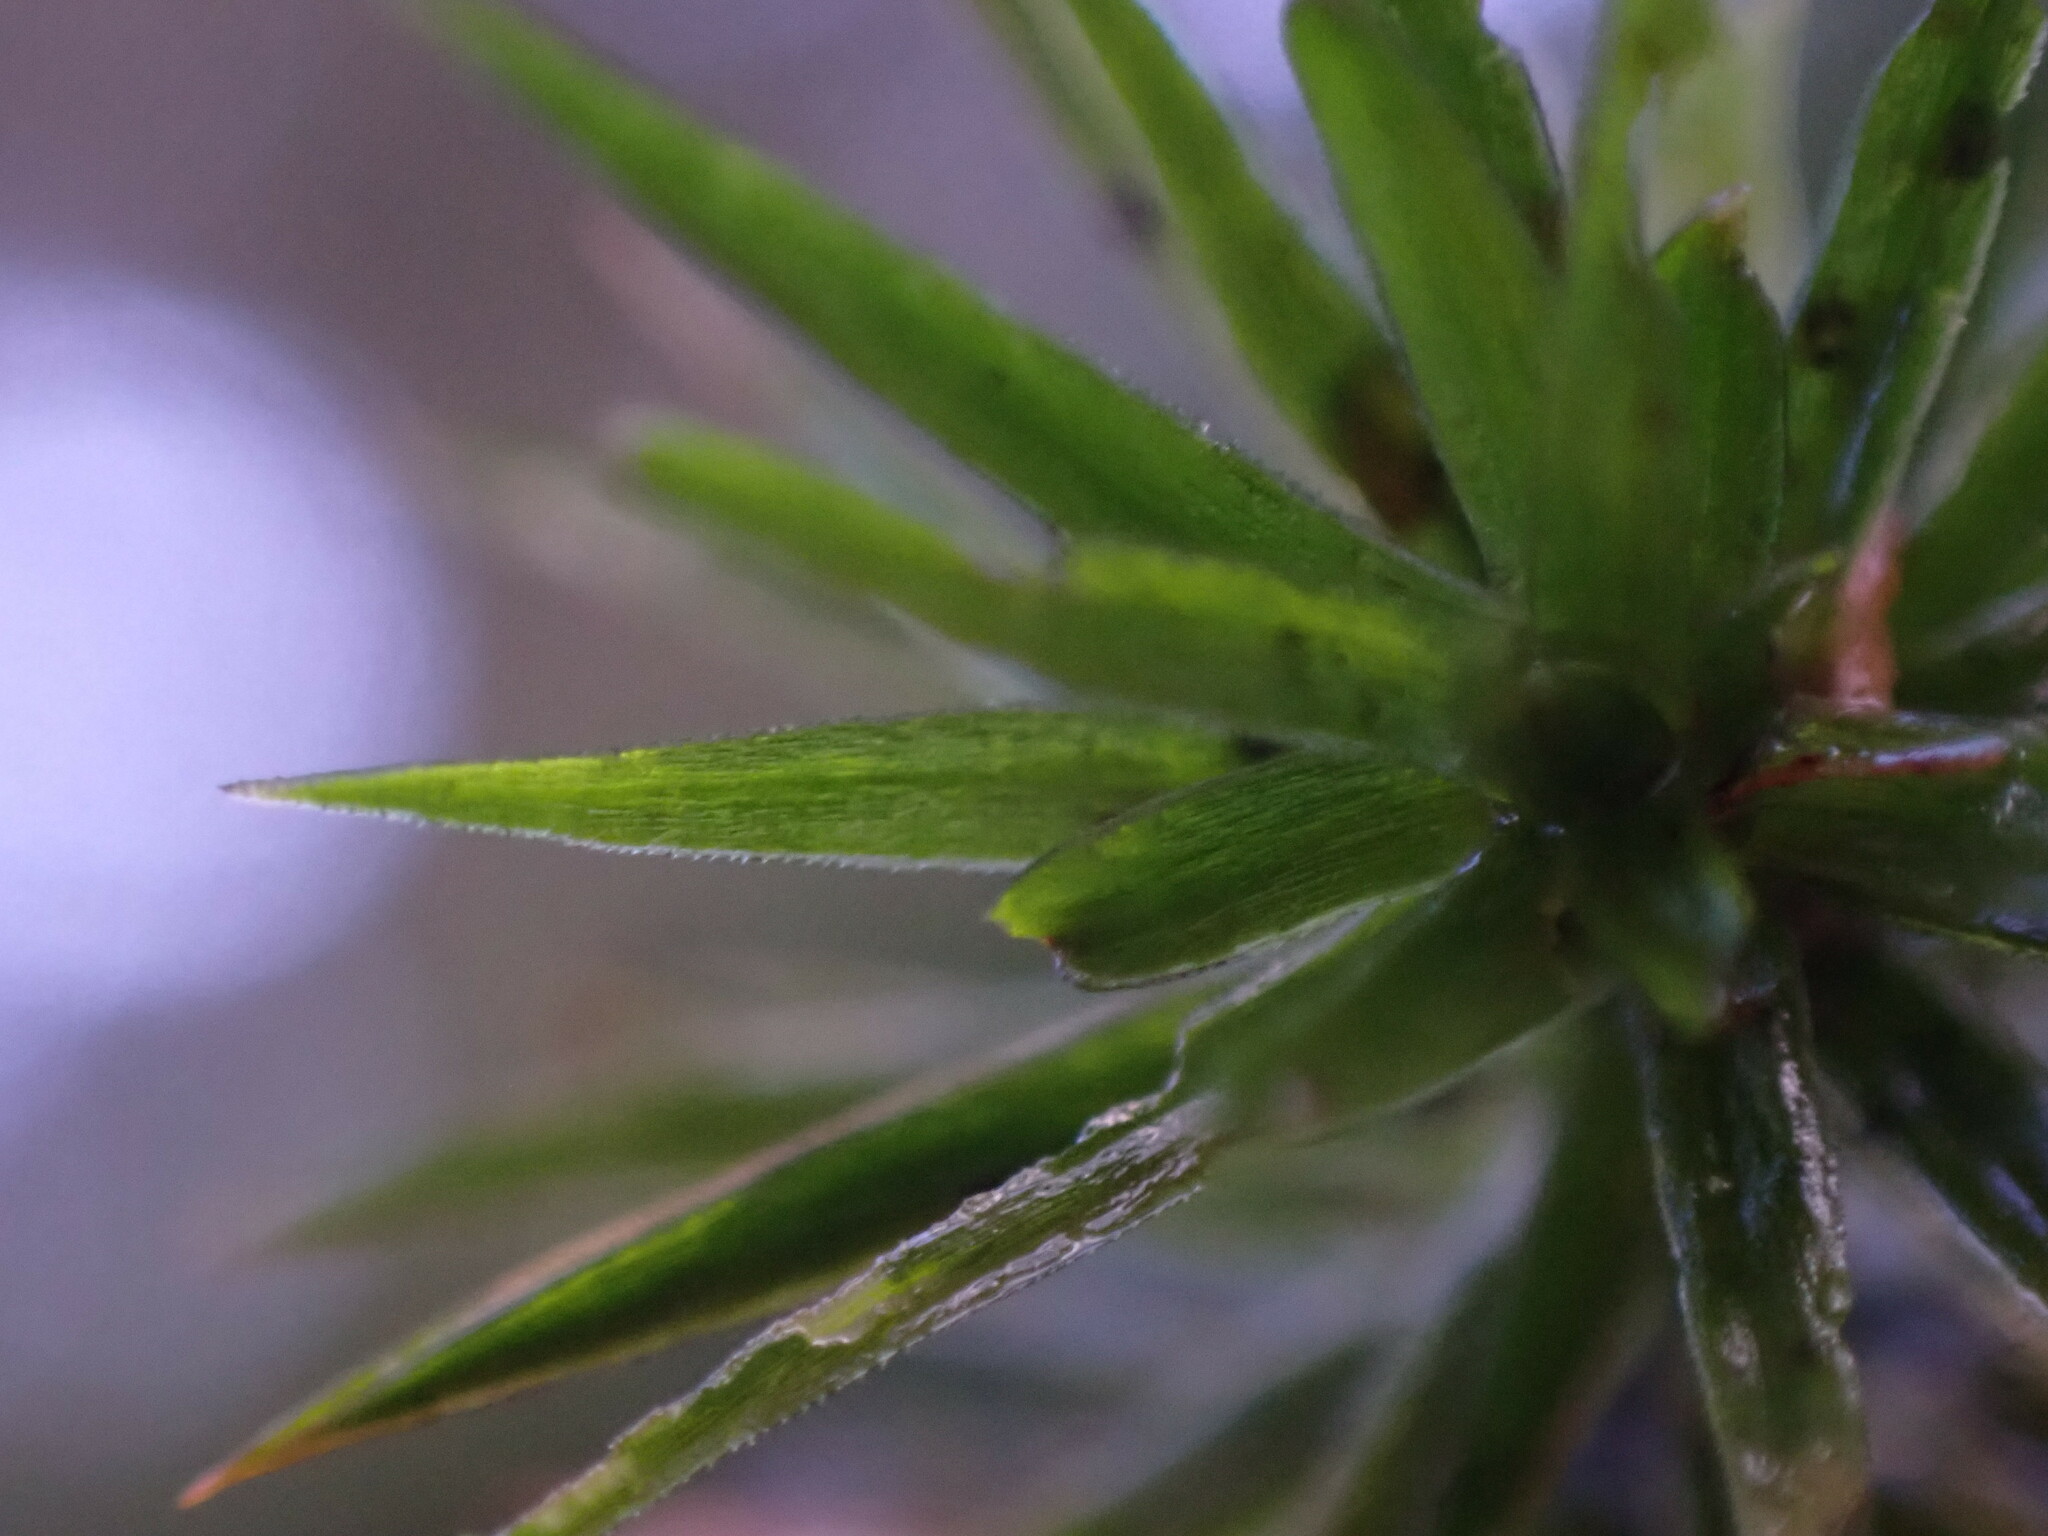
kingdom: Plantae
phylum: Bryophyta
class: Polytrichopsida
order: Polytrichales
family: Polytrichaceae
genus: Polytrichum
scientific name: Polytrichum formosum
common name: Bank haircap moss
